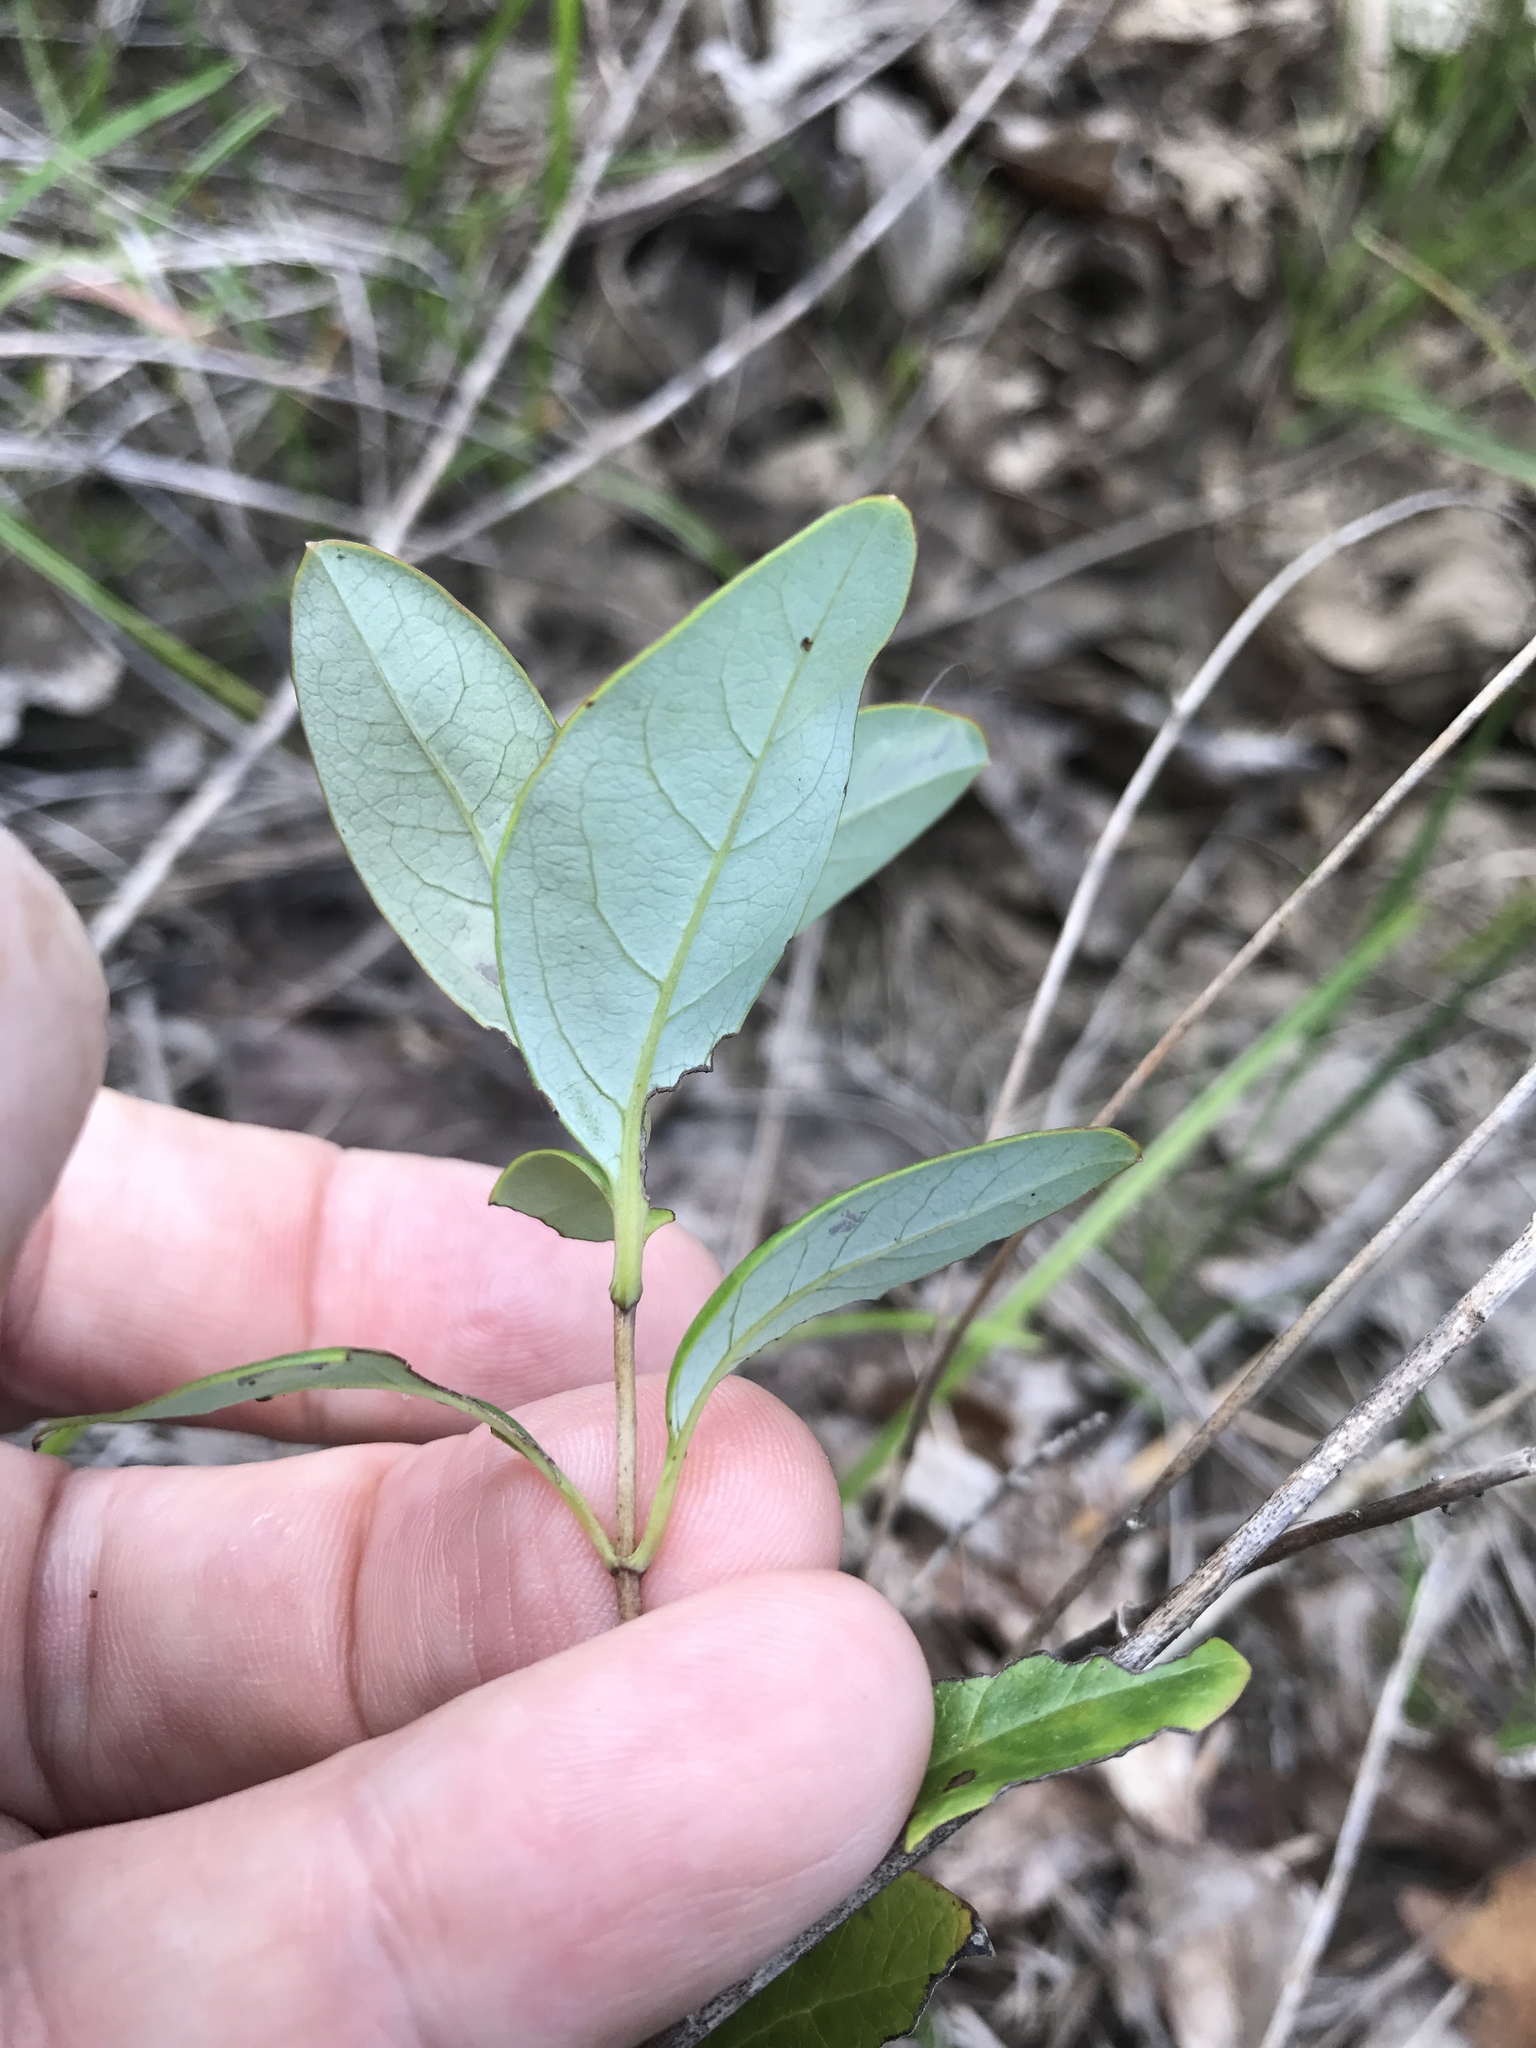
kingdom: Plantae
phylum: Tracheophyta
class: Magnoliopsida
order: Dipsacales
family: Caprifoliaceae
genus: Lonicera
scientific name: Lonicera sempervirens
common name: Coral honeysuckle
